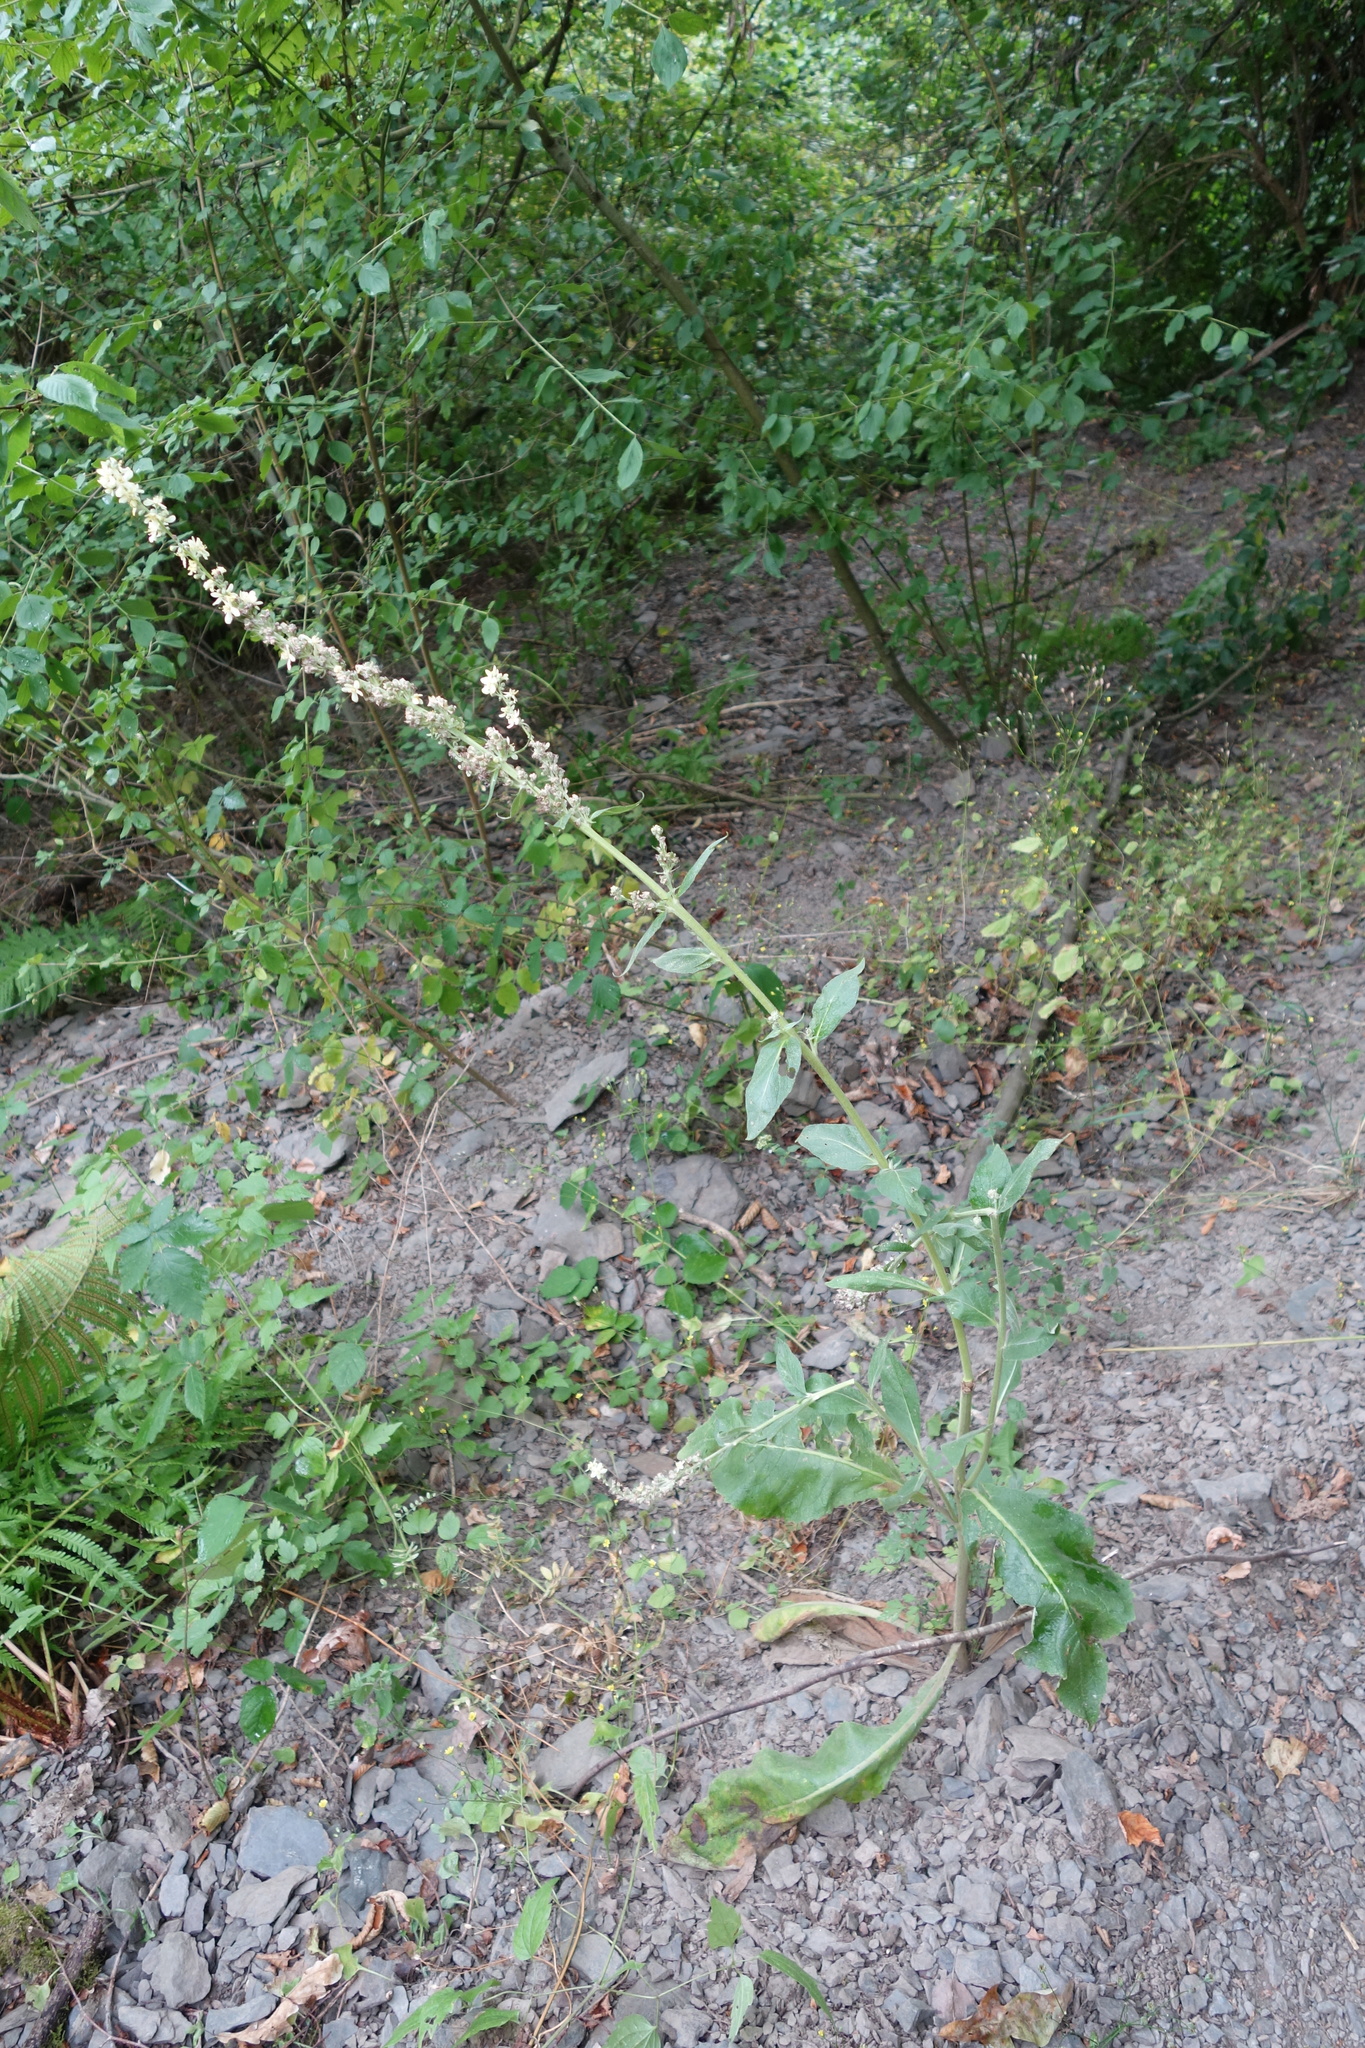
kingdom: Plantae
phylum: Tracheophyta
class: Magnoliopsida
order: Lamiales
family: Scrophulariaceae
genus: Verbascum
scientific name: Verbascum lychnitis
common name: White mullein
